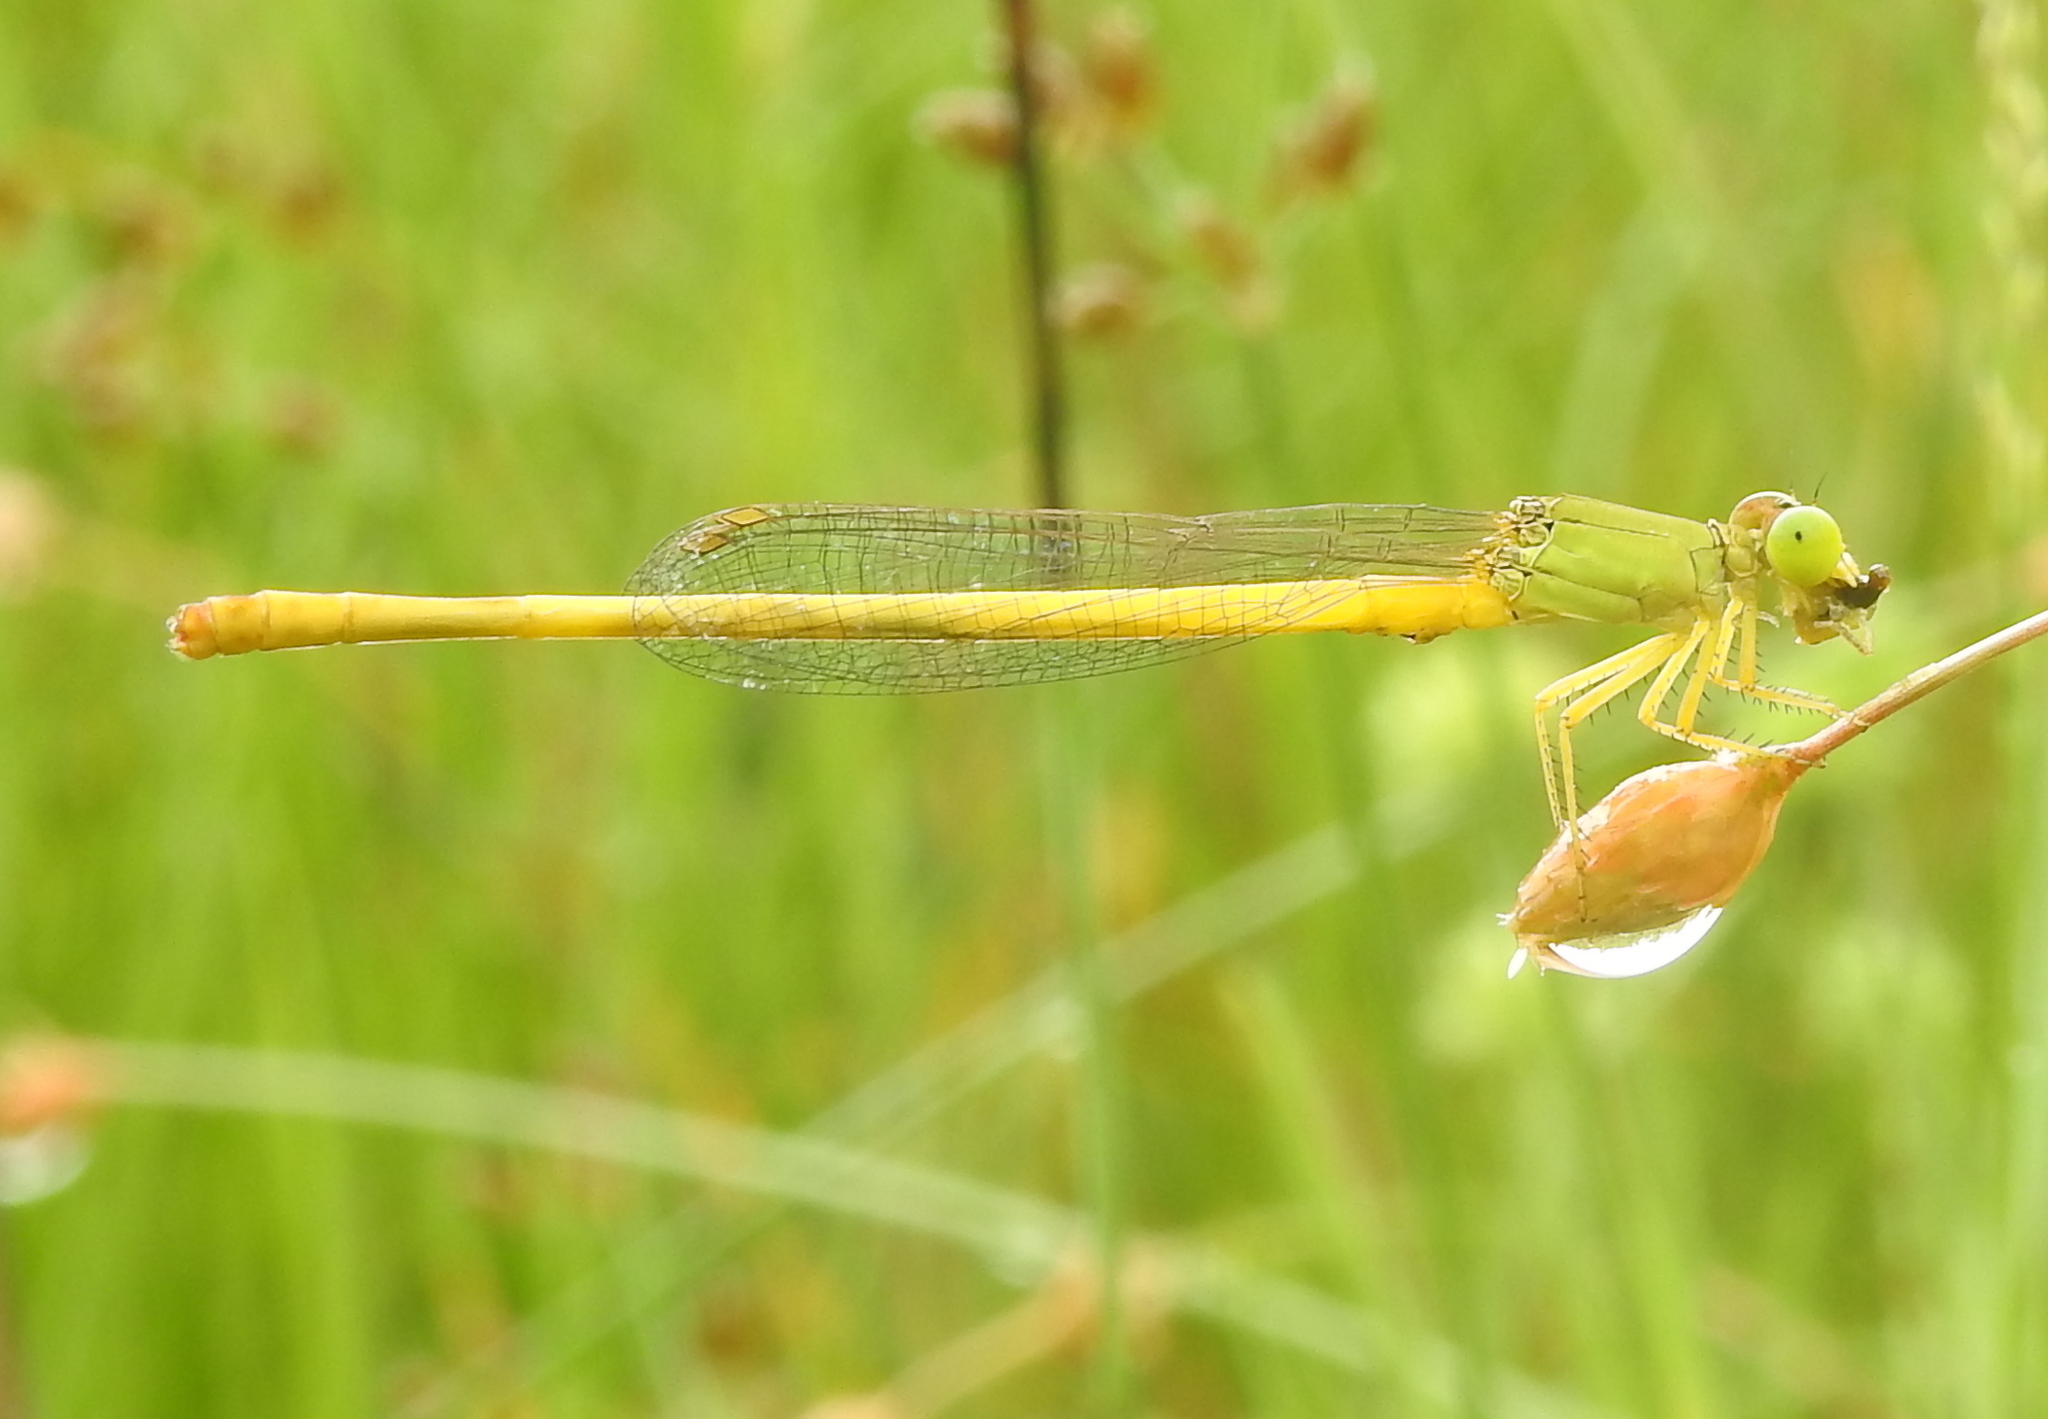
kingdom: Animalia
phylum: Arthropoda
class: Insecta
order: Odonata
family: Coenagrionidae
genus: Ceriagrion
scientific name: Ceriagrion coromandelianum
